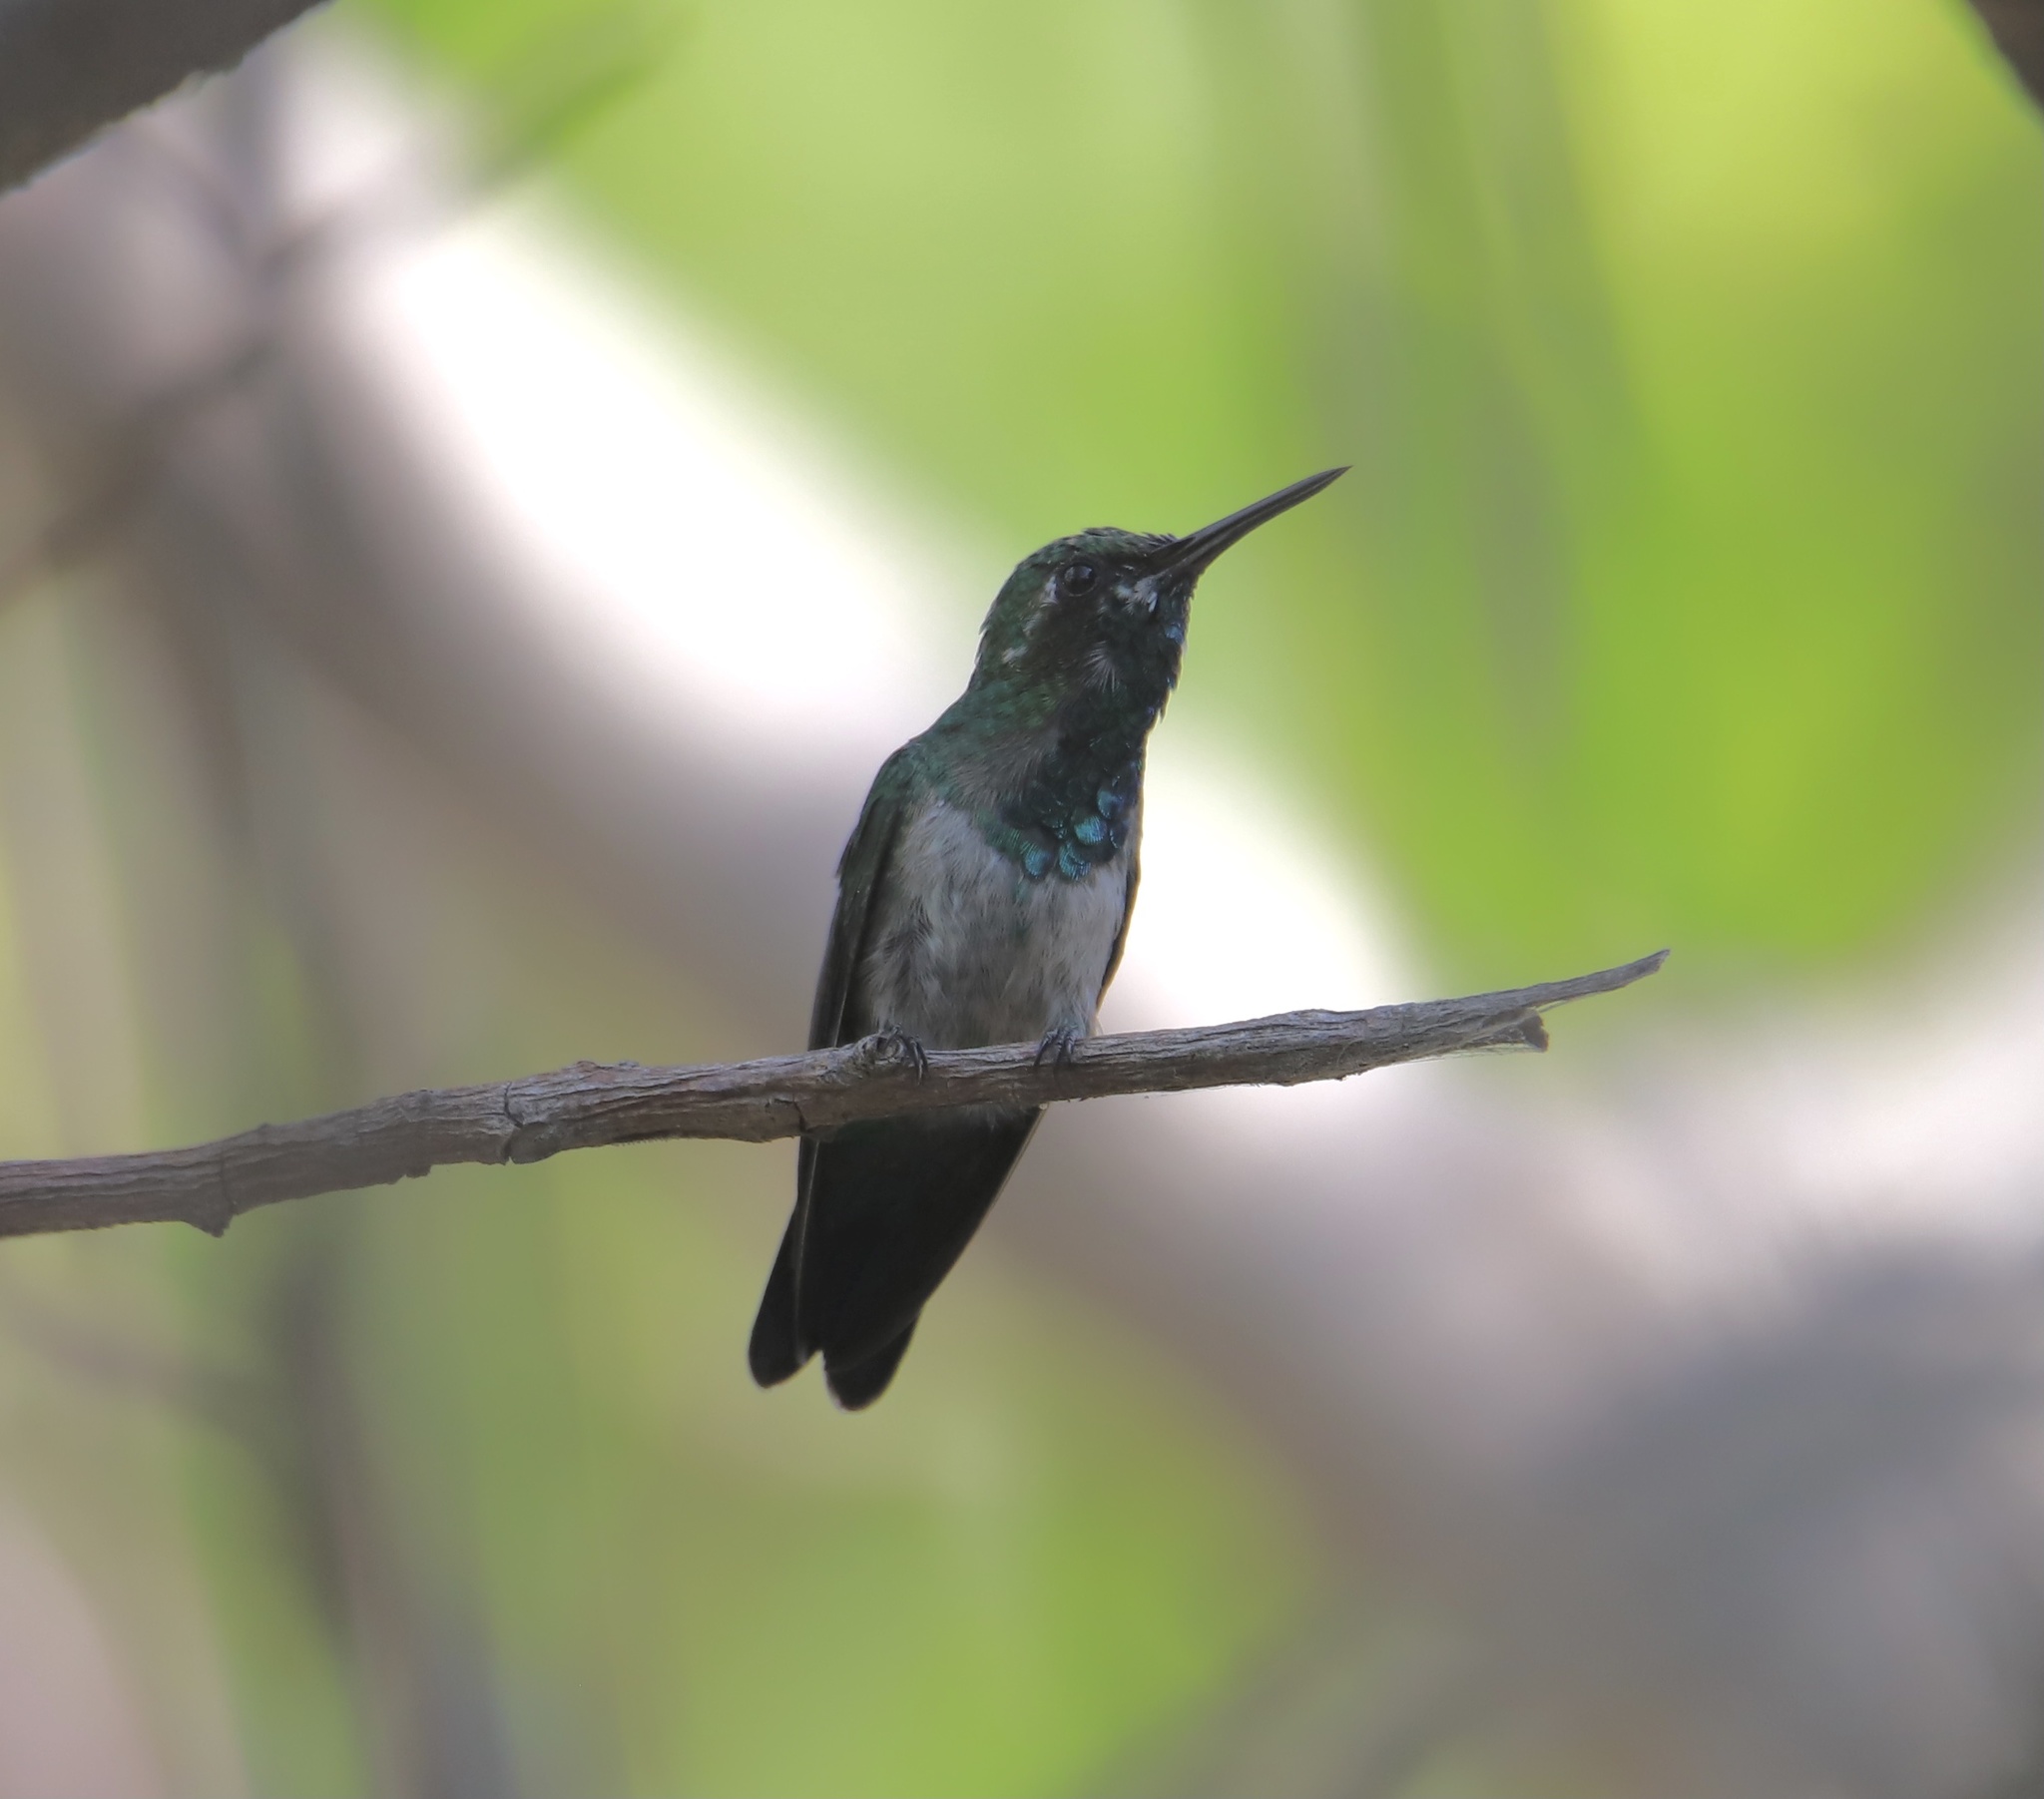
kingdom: Animalia
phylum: Chordata
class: Aves
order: Apodiformes
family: Trochilidae
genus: Chlorostilbon
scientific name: Chlorostilbon assimilis
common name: Garden emerald
